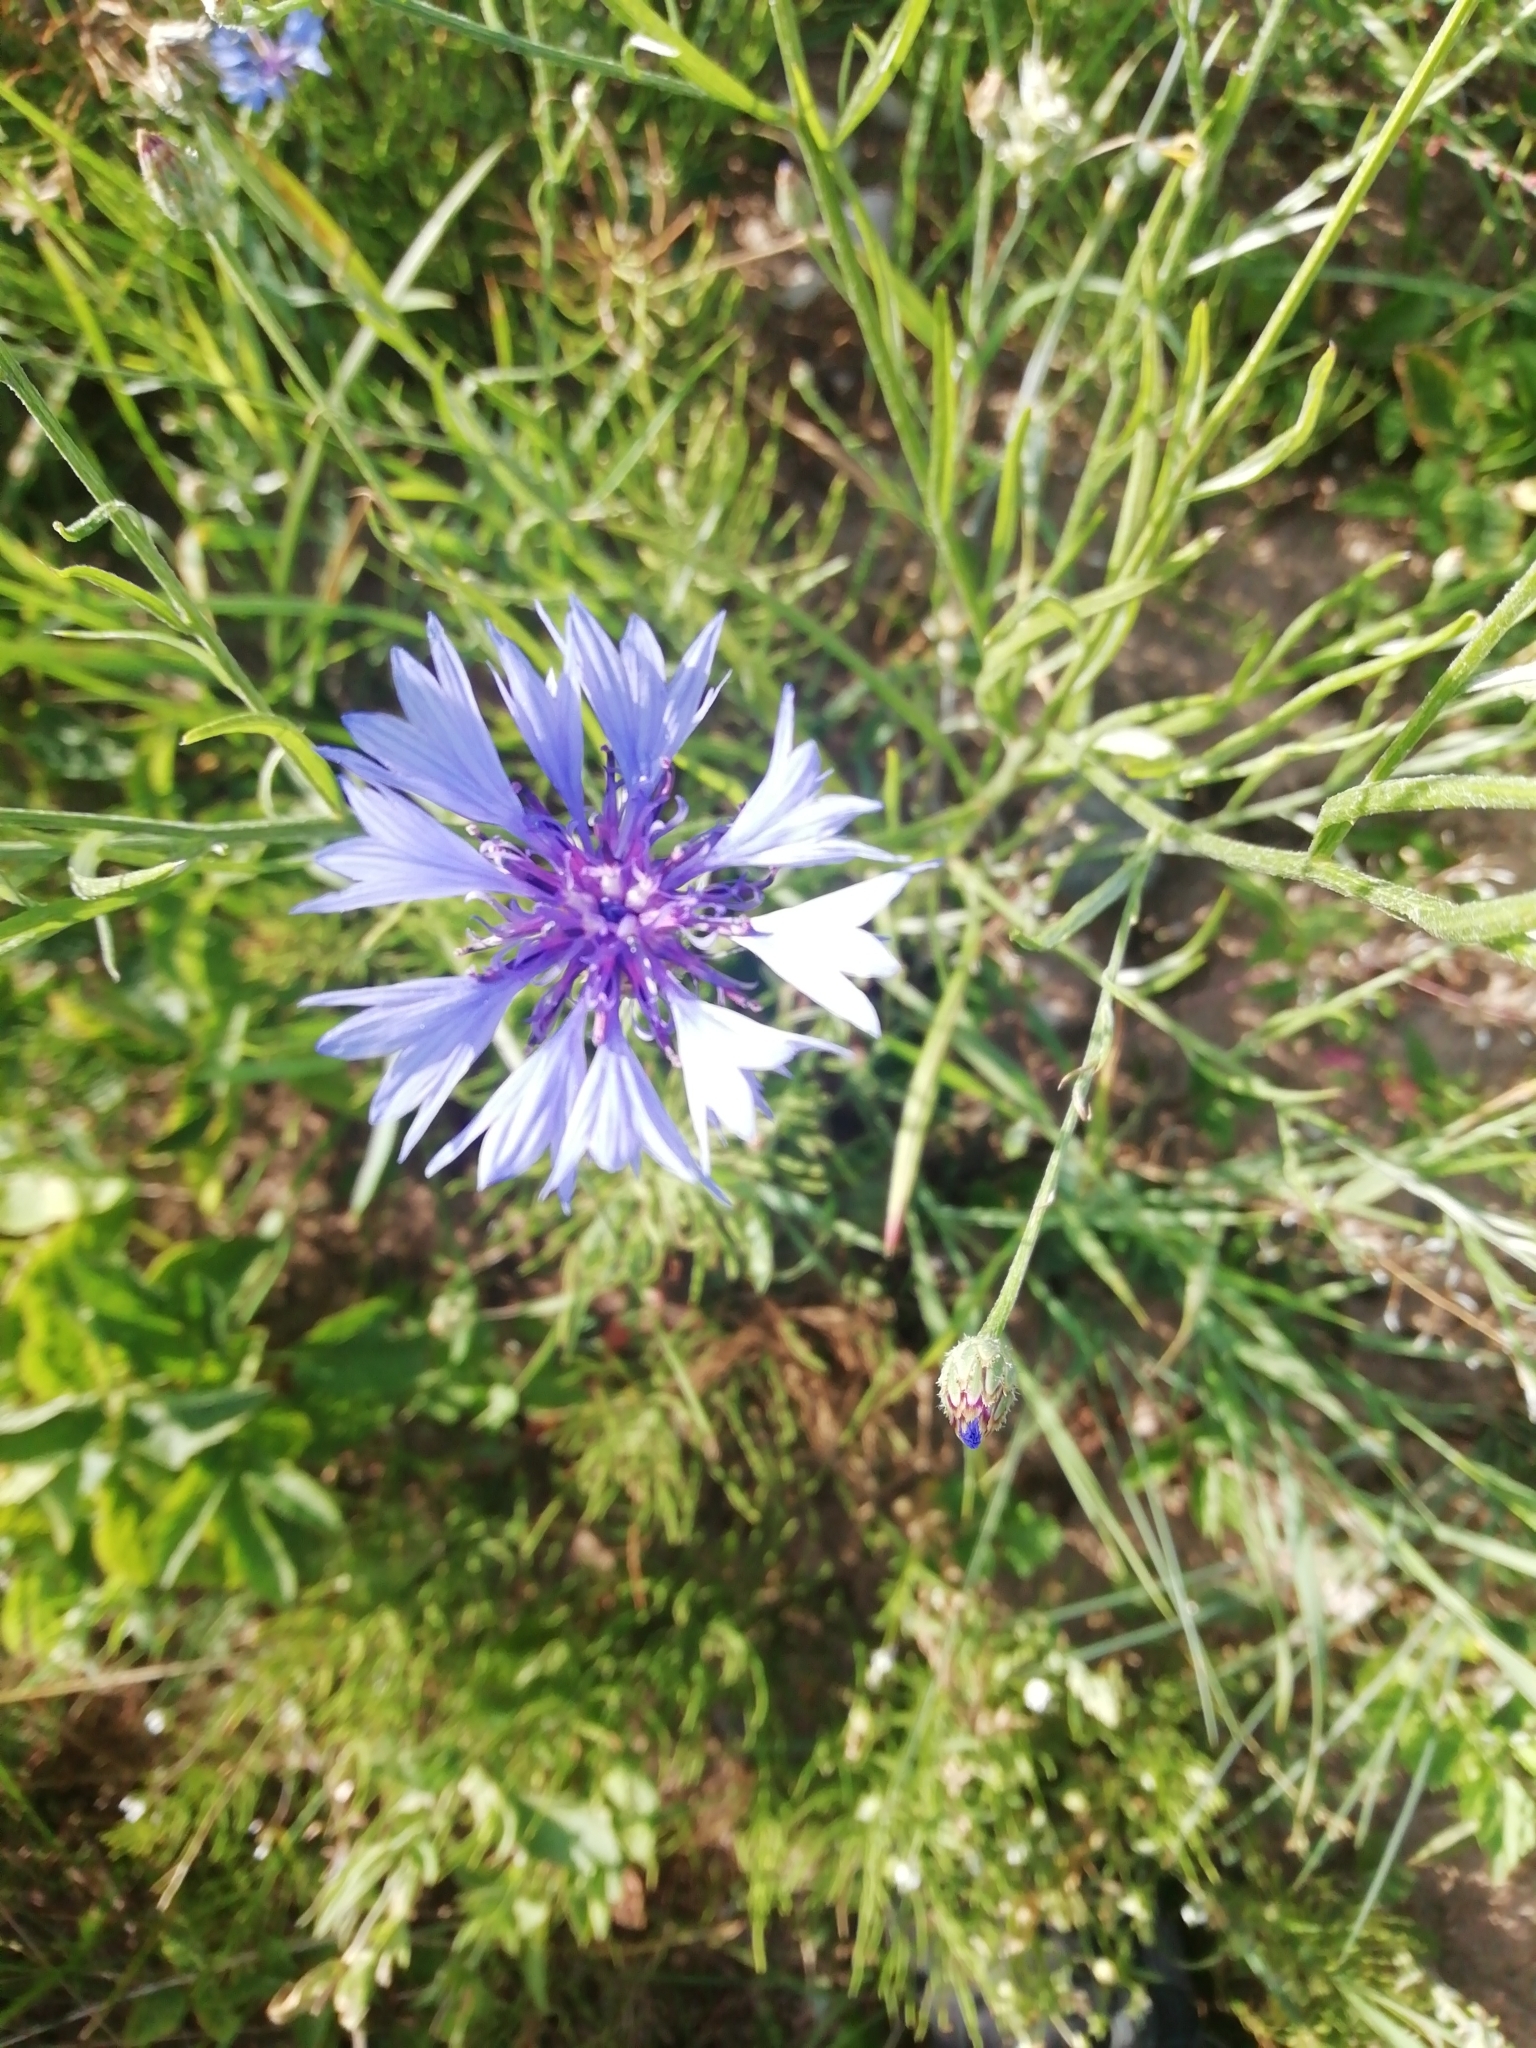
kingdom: Plantae
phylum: Tracheophyta
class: Magnoliopsida
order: Asterales
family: Asteraceae
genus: Centaurea
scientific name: Centaurea cyanus
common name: Cornflower
